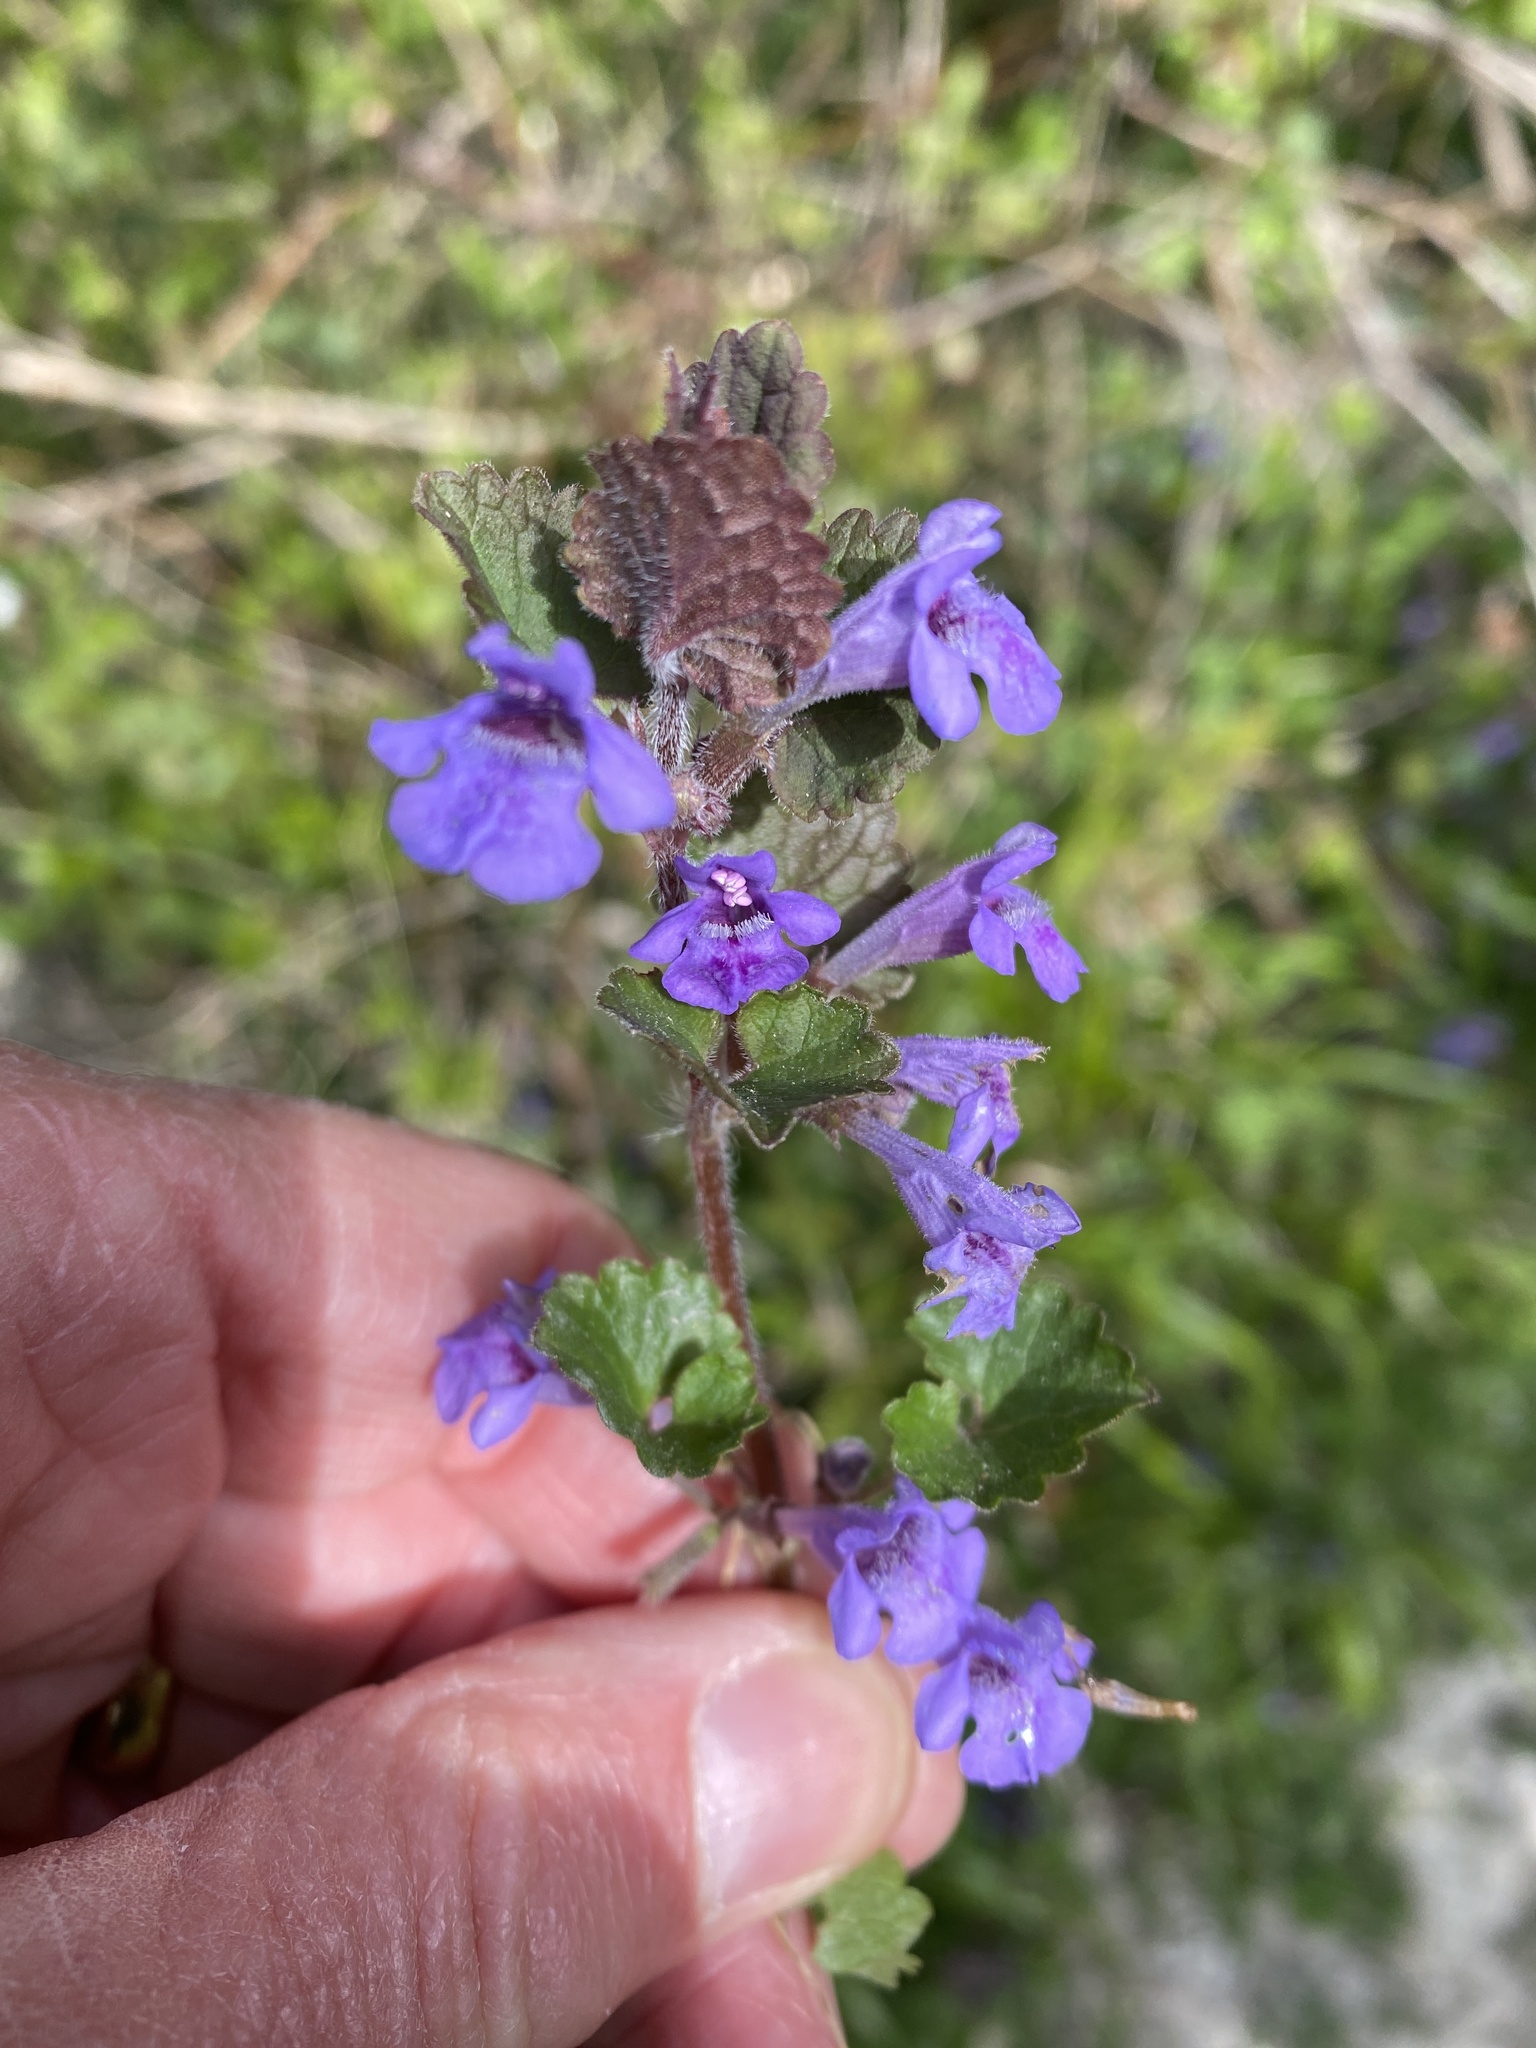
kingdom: Plantae
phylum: Tracheophyta
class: Magnoliopsida
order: Lamiales
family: Lamiaceae
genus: Glechoma
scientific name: Glechoma hederacea
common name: Ground ivy
